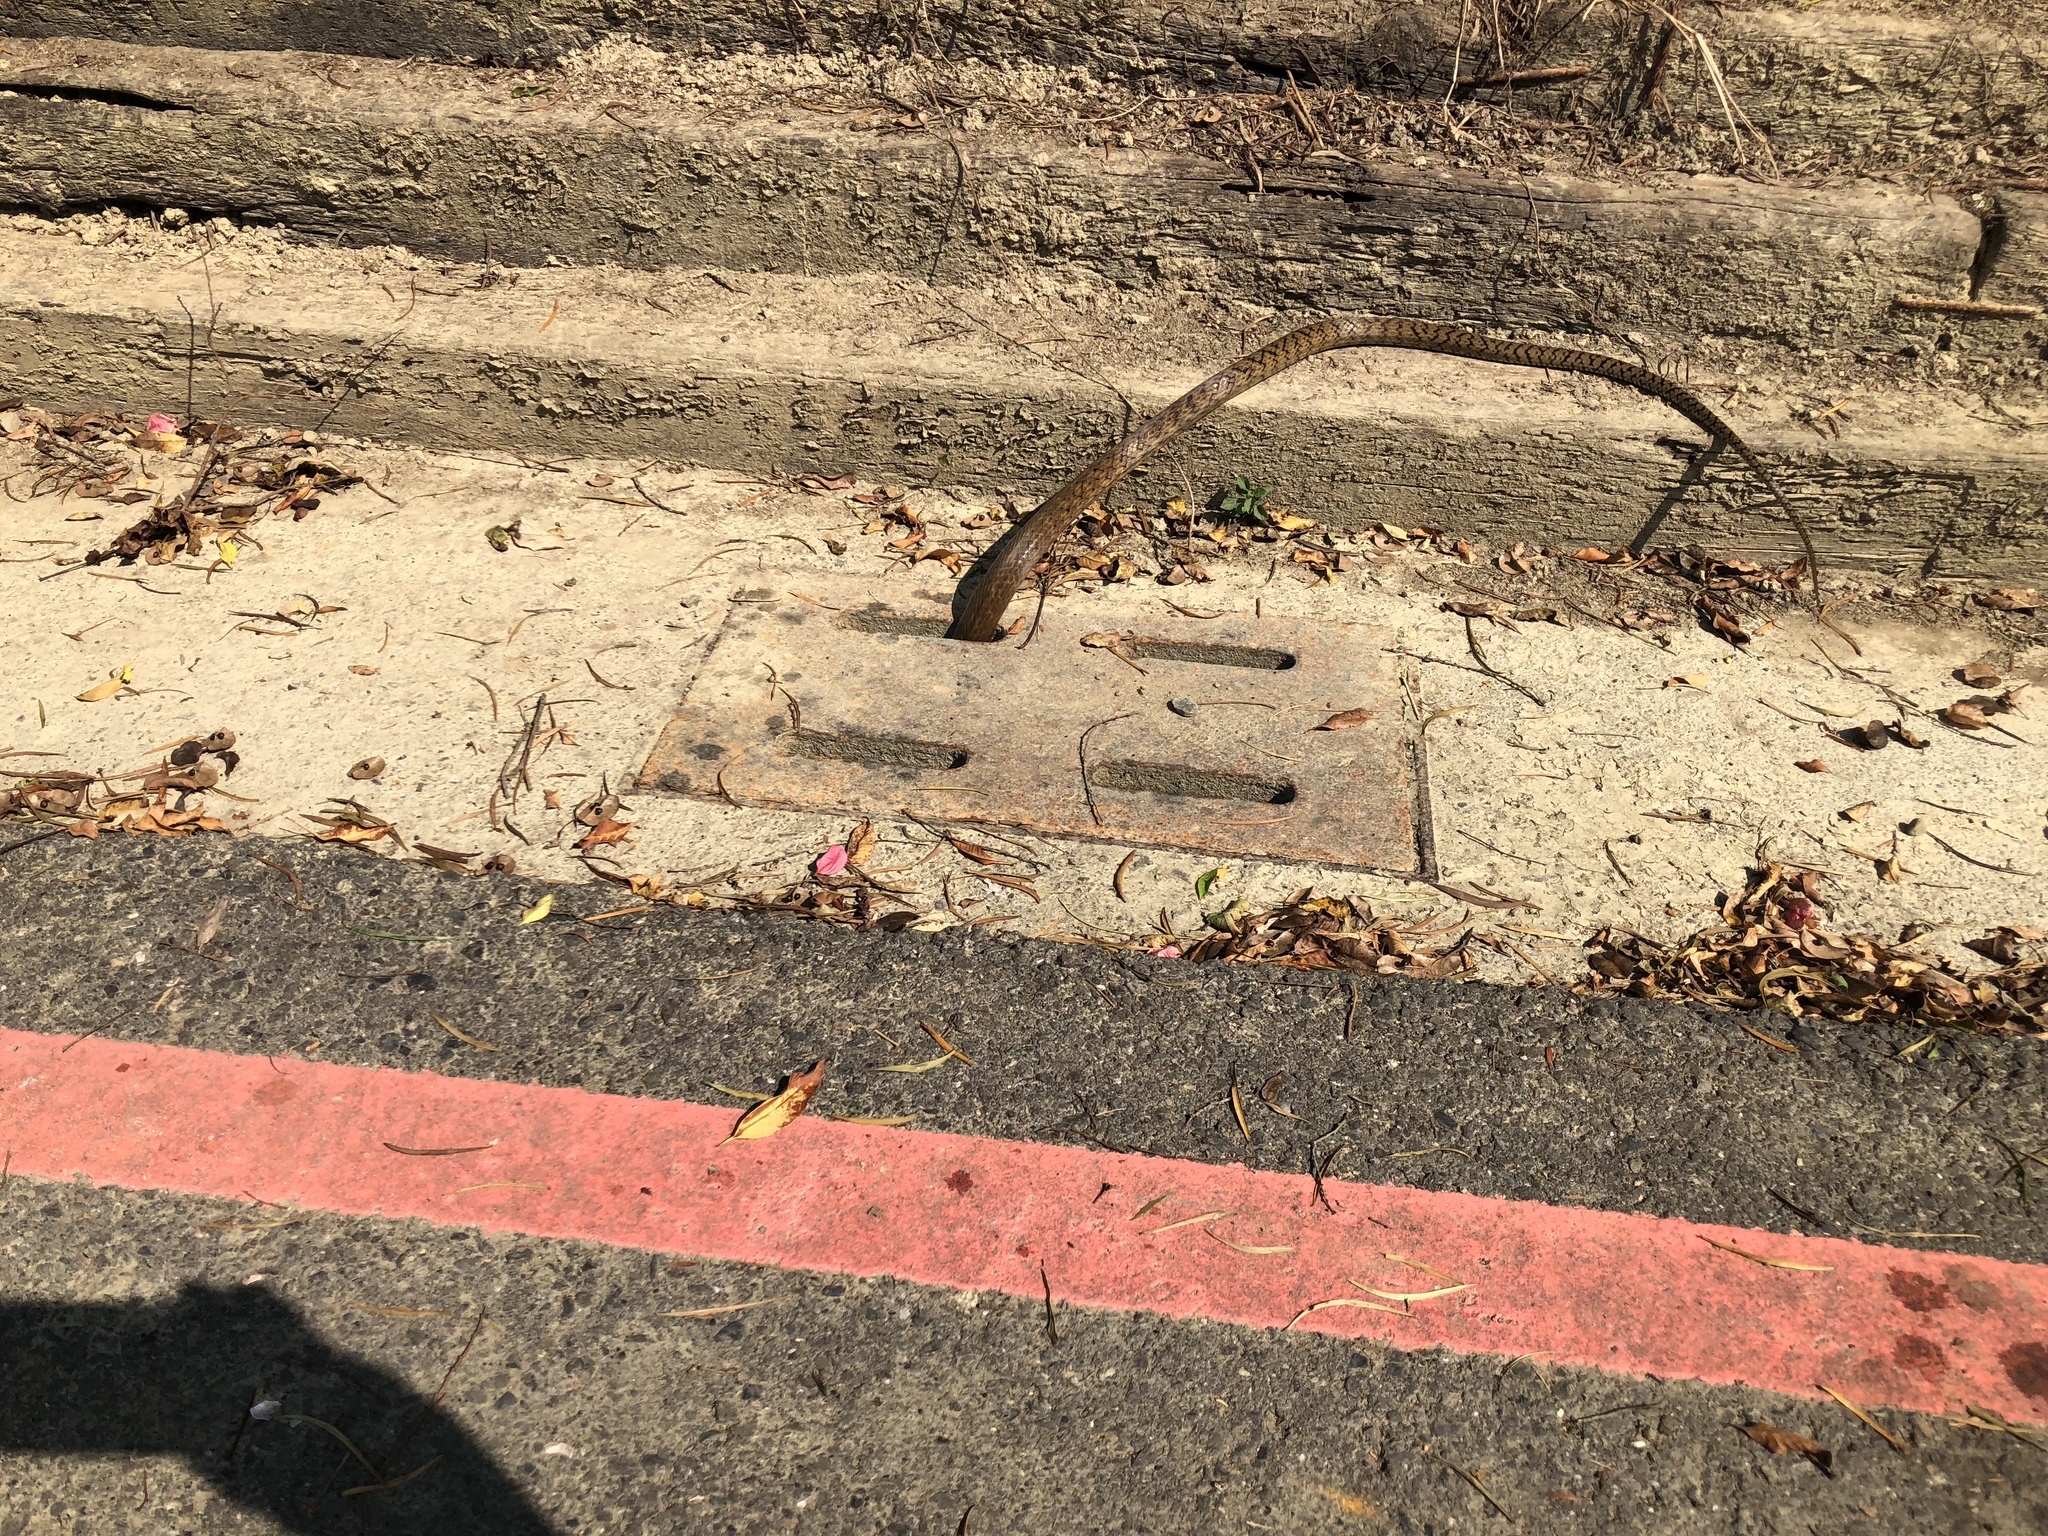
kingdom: Animalia
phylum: Chordata
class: Squamata
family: Colubridae
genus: Ptyas
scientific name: Ptyas mucosa
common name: Oriental ratsnake
